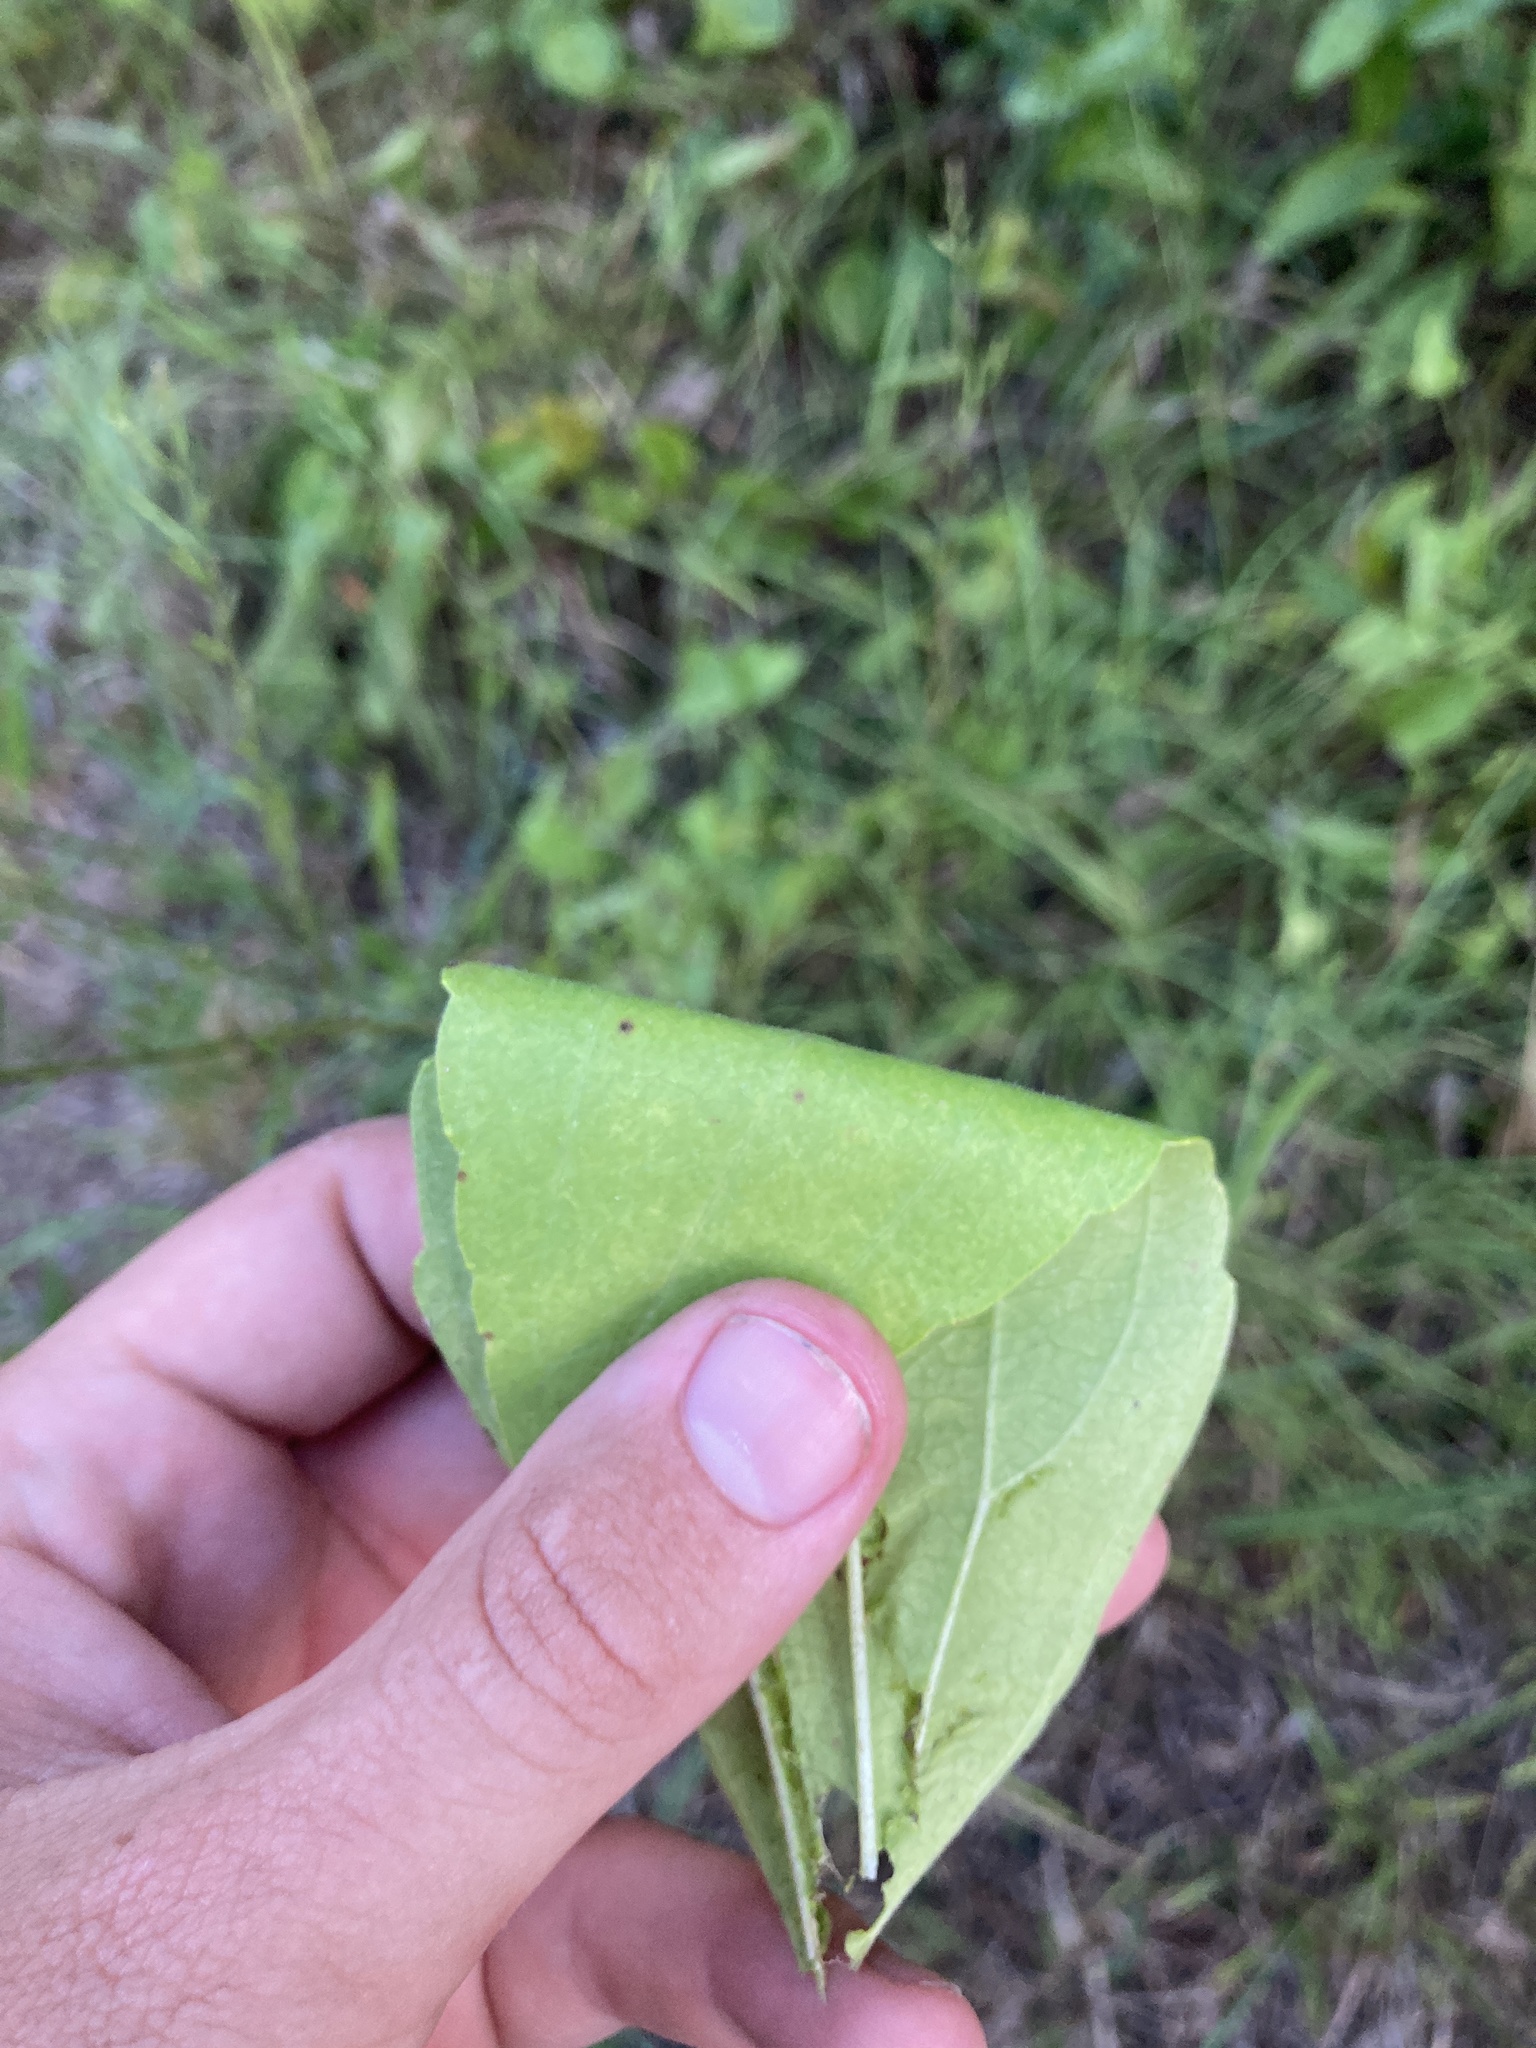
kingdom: Plantae
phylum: Tracheophyta
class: Magnoliopsida
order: Asterales
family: Asteraceae
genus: Rudbeckia
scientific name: Rudbeckia grandiflora
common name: Large-flowered coneflower
